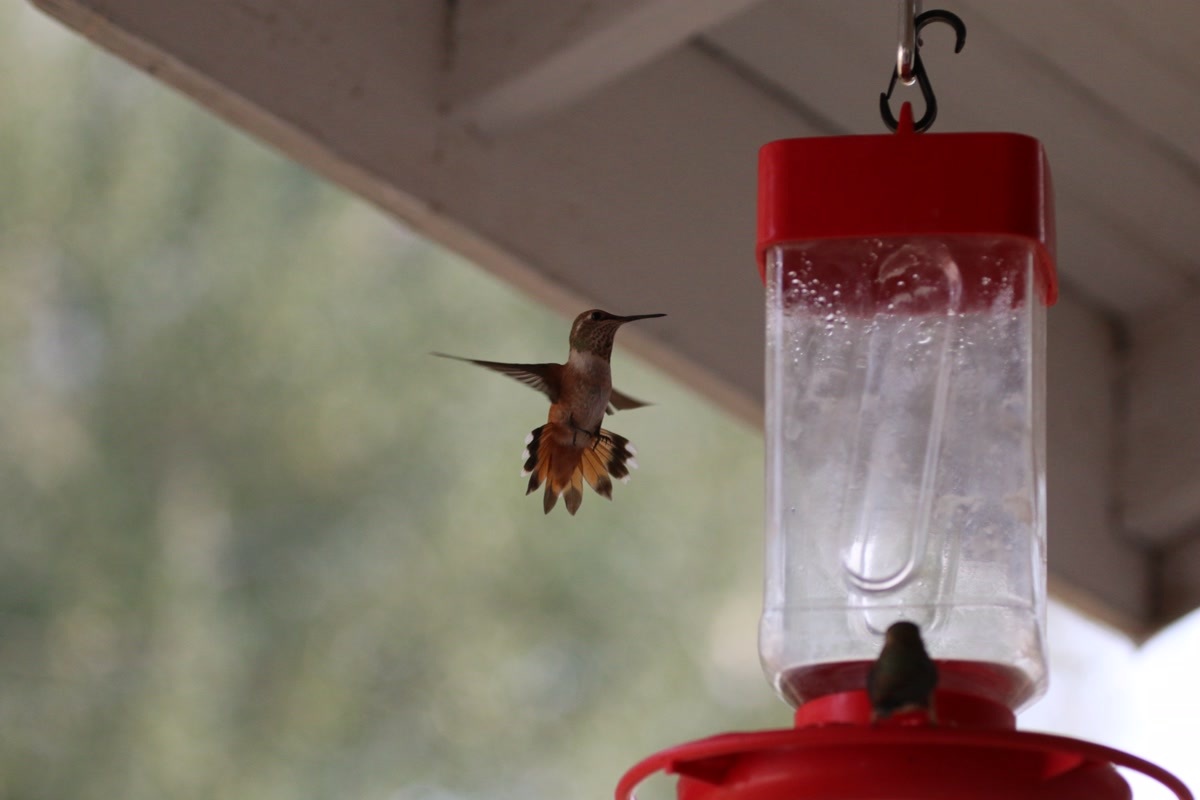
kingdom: Animalia
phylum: Chordata
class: Aves
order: Apodiformes
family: Trochilidae
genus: Selasphorus
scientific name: Selasphorus rufus
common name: Rufous hummingbird
